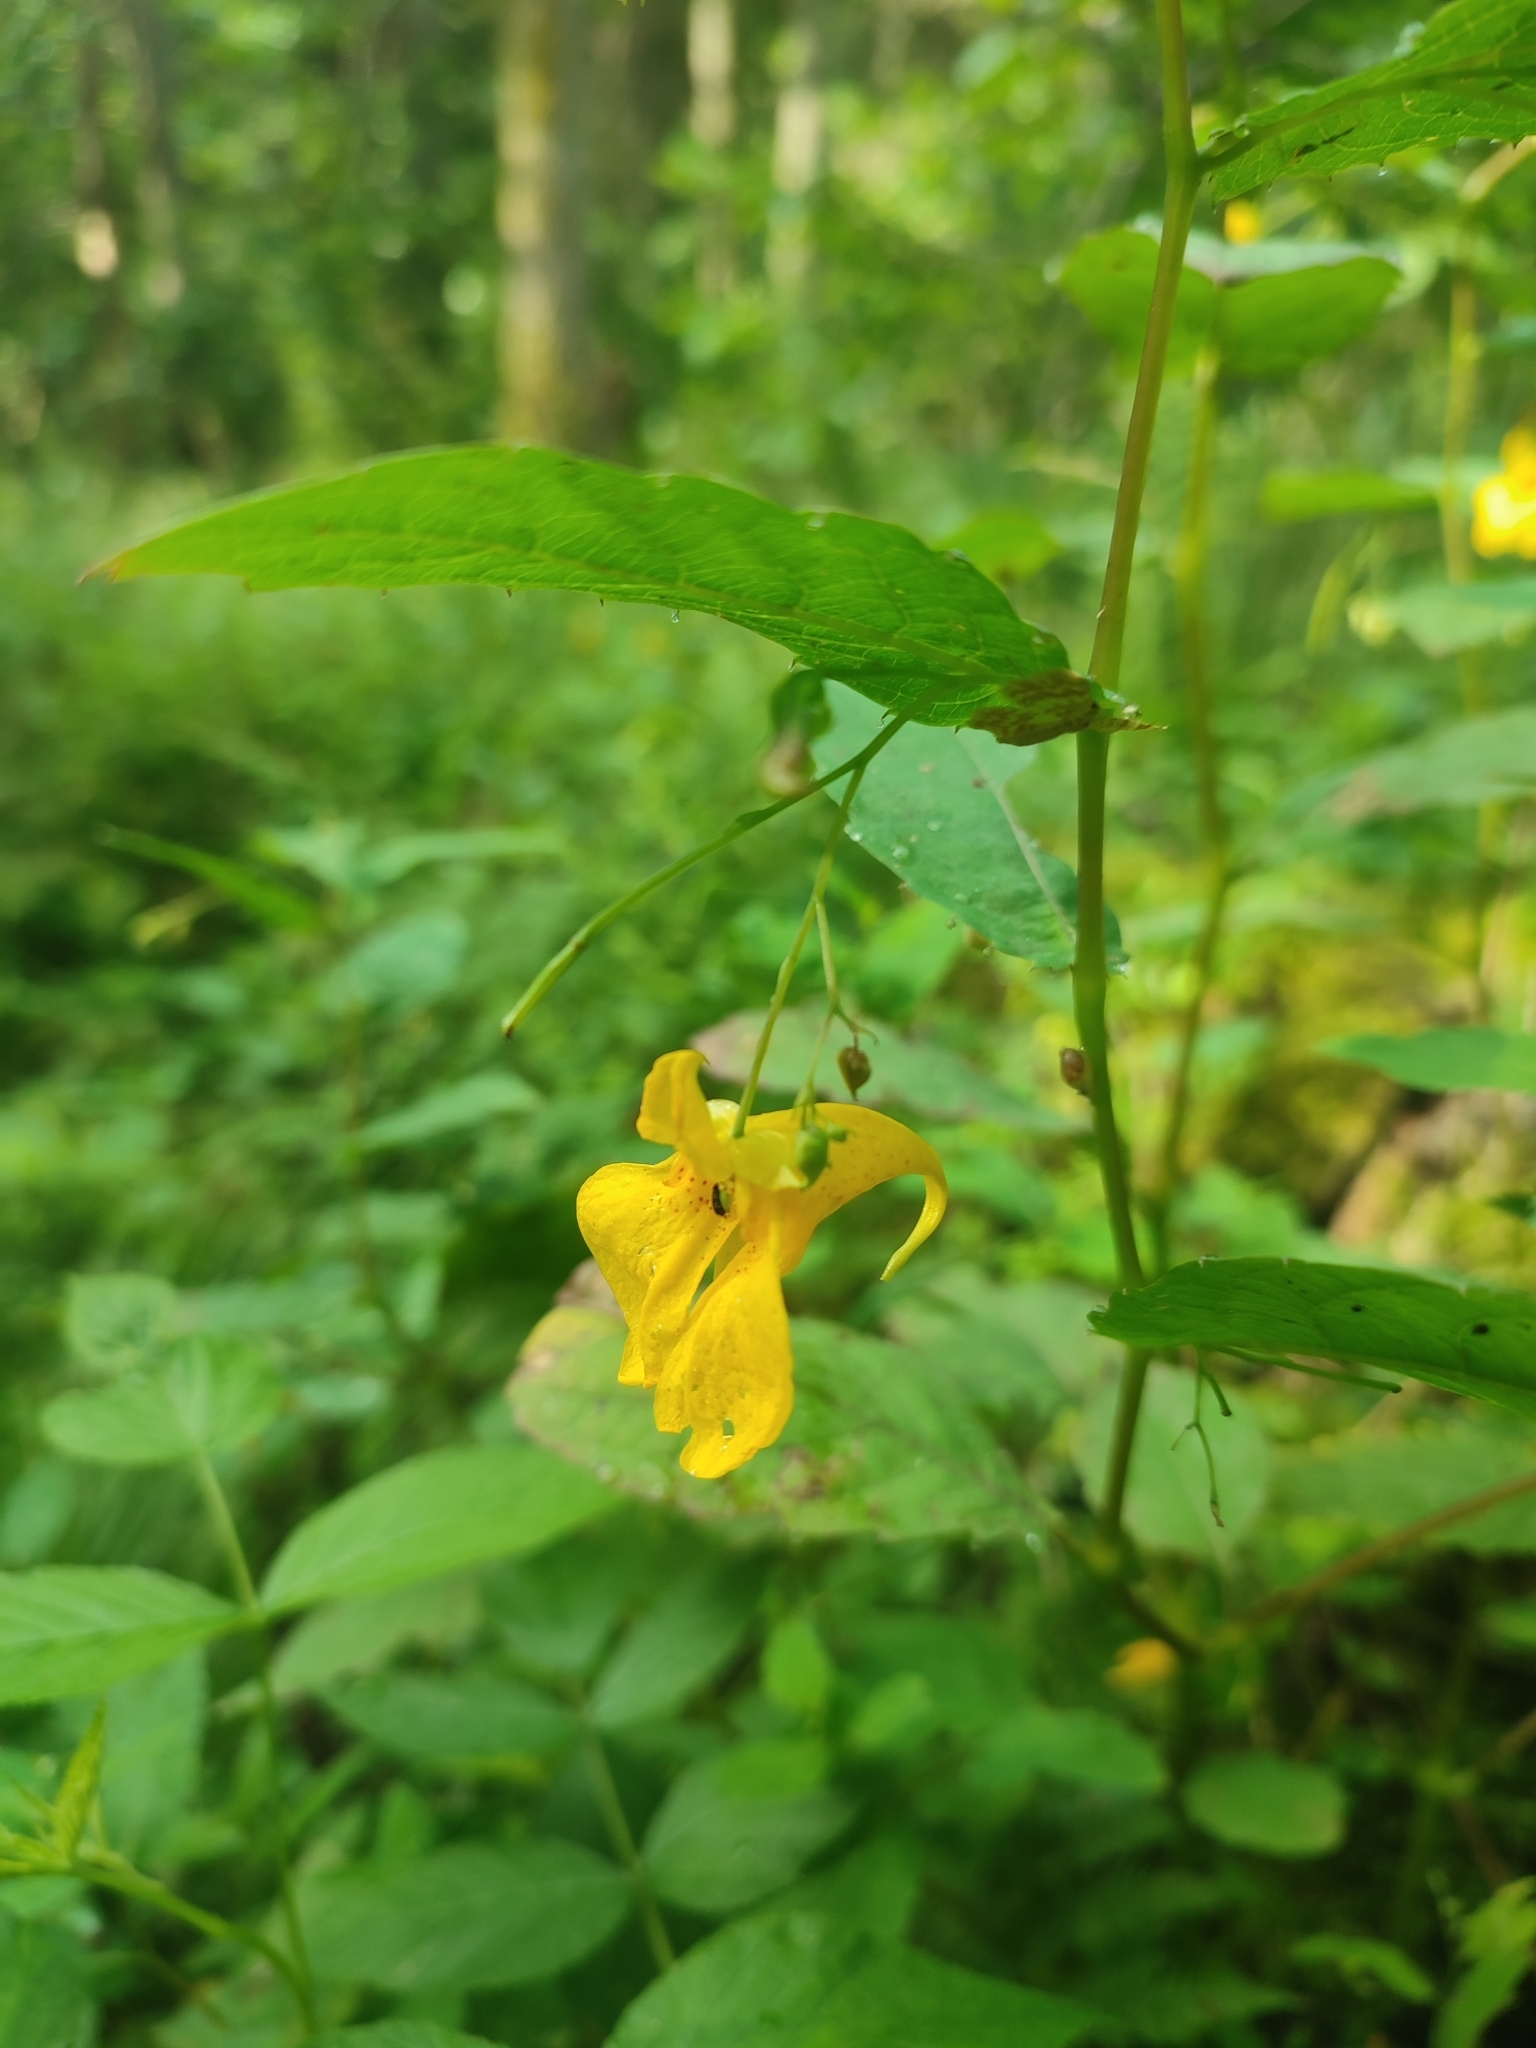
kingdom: Plantae
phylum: Tracheophyta
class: Magnoliopsida
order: Ericales
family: Balsaminaceae
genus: Impatiens
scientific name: Impatiens noli-tangere
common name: Touch-me-not balsam
